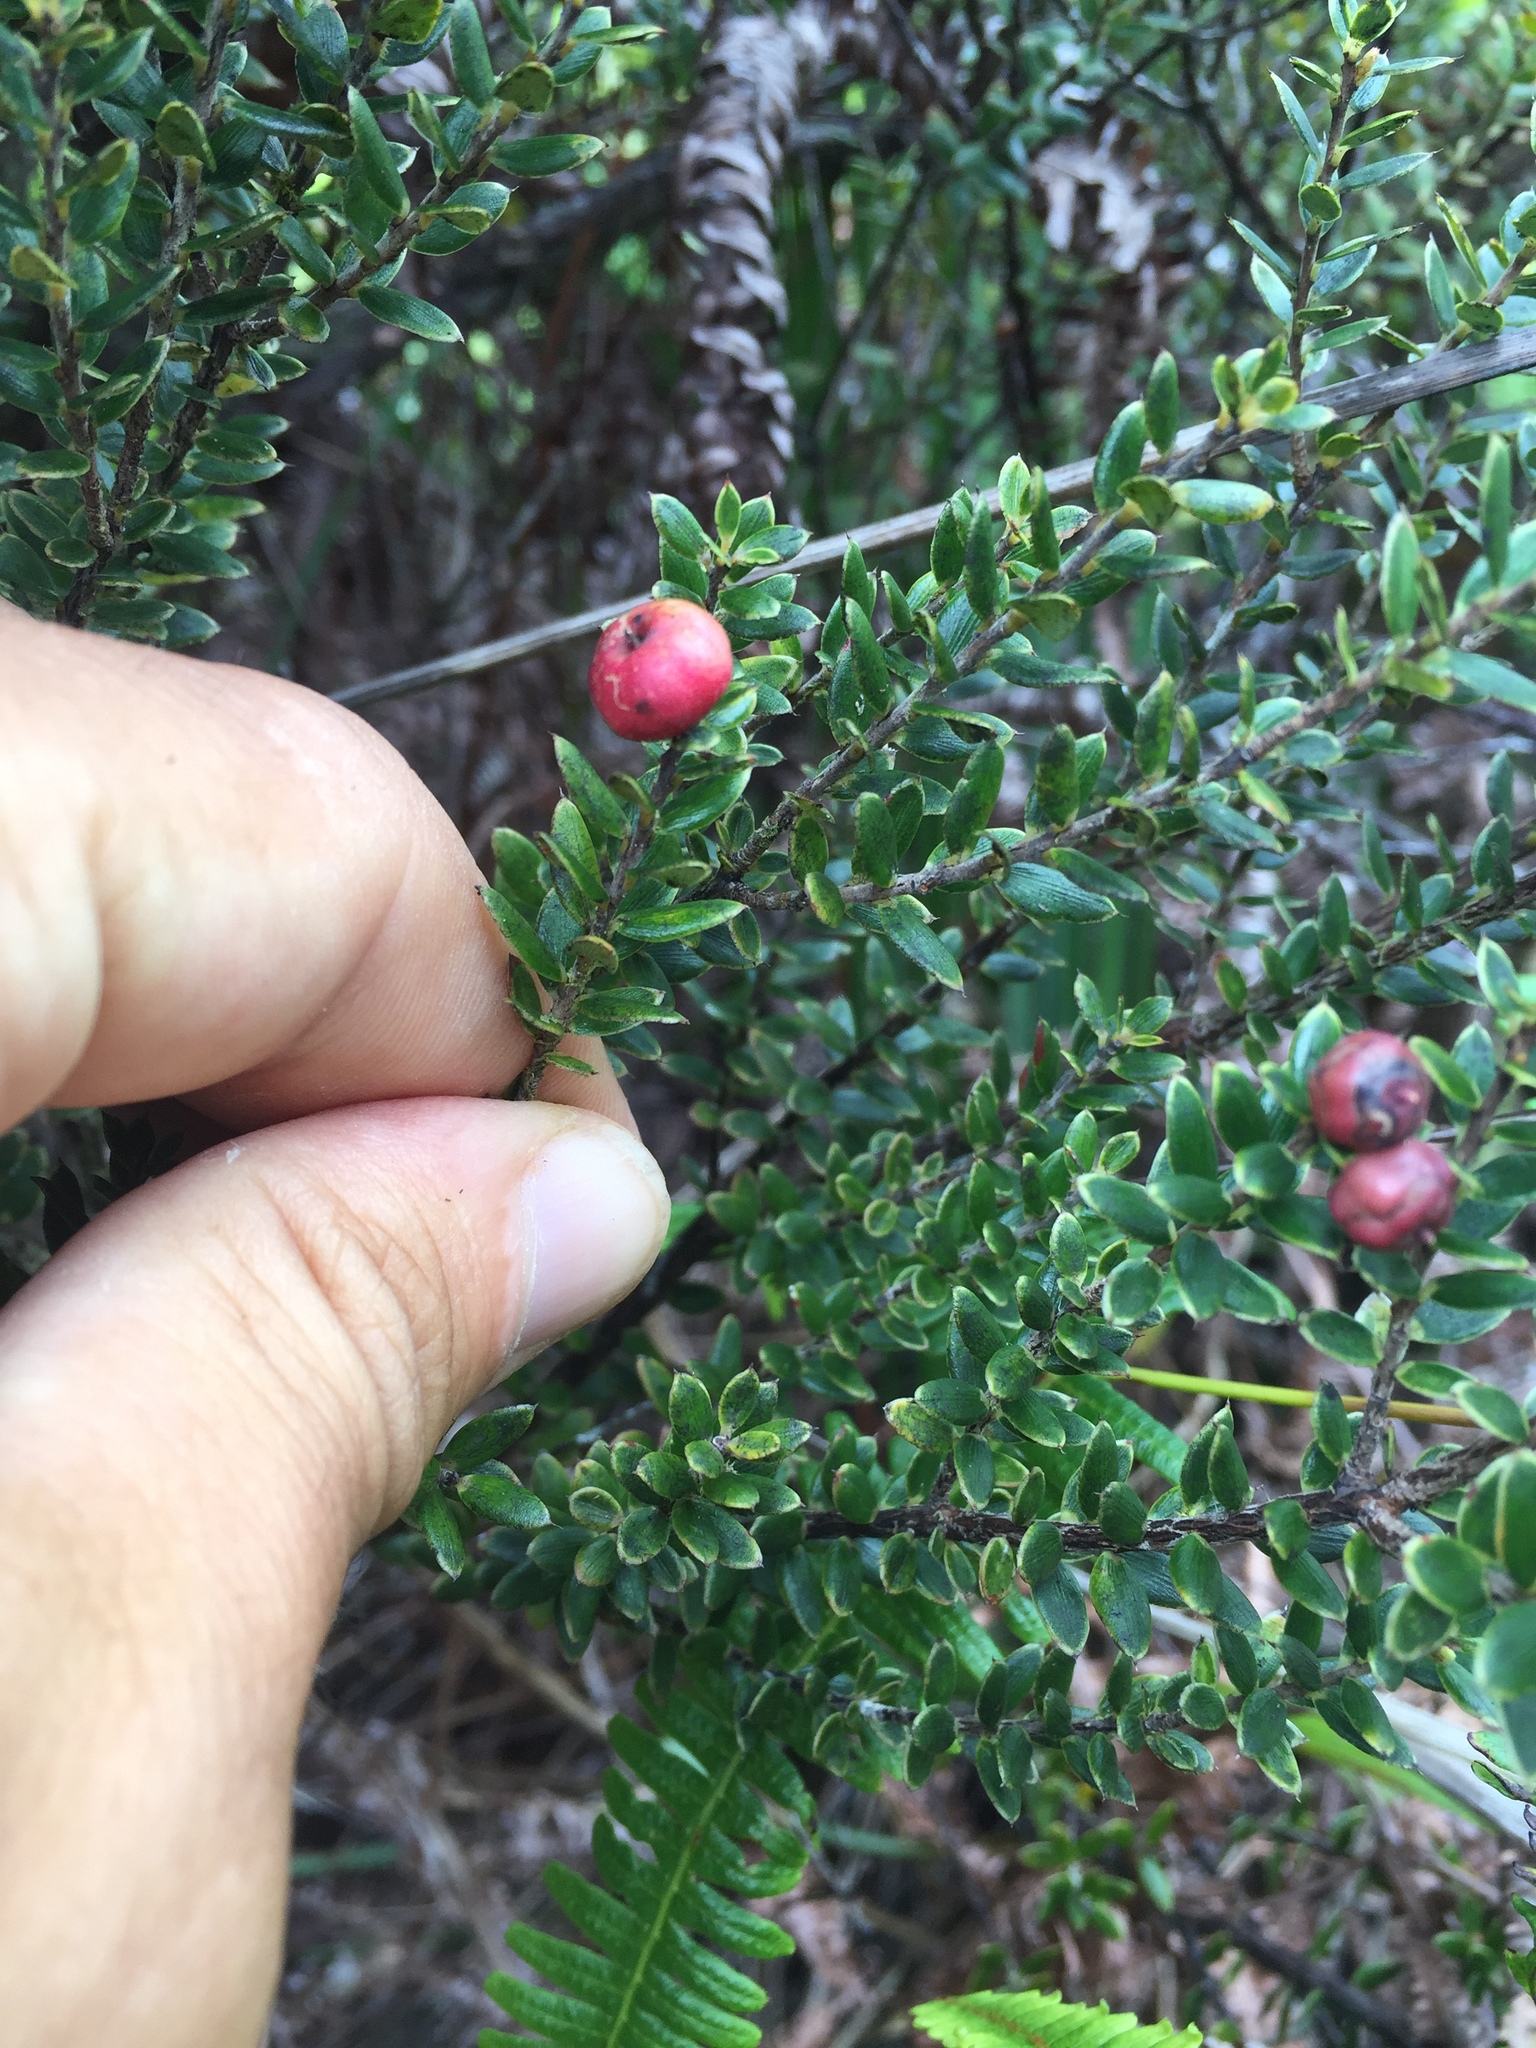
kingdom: Plantae
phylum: Tracheophyta
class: Magnoliopsida
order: Ericales
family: Ericaceae
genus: Leptecophylla
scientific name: Leptecophylla tameiameiae
